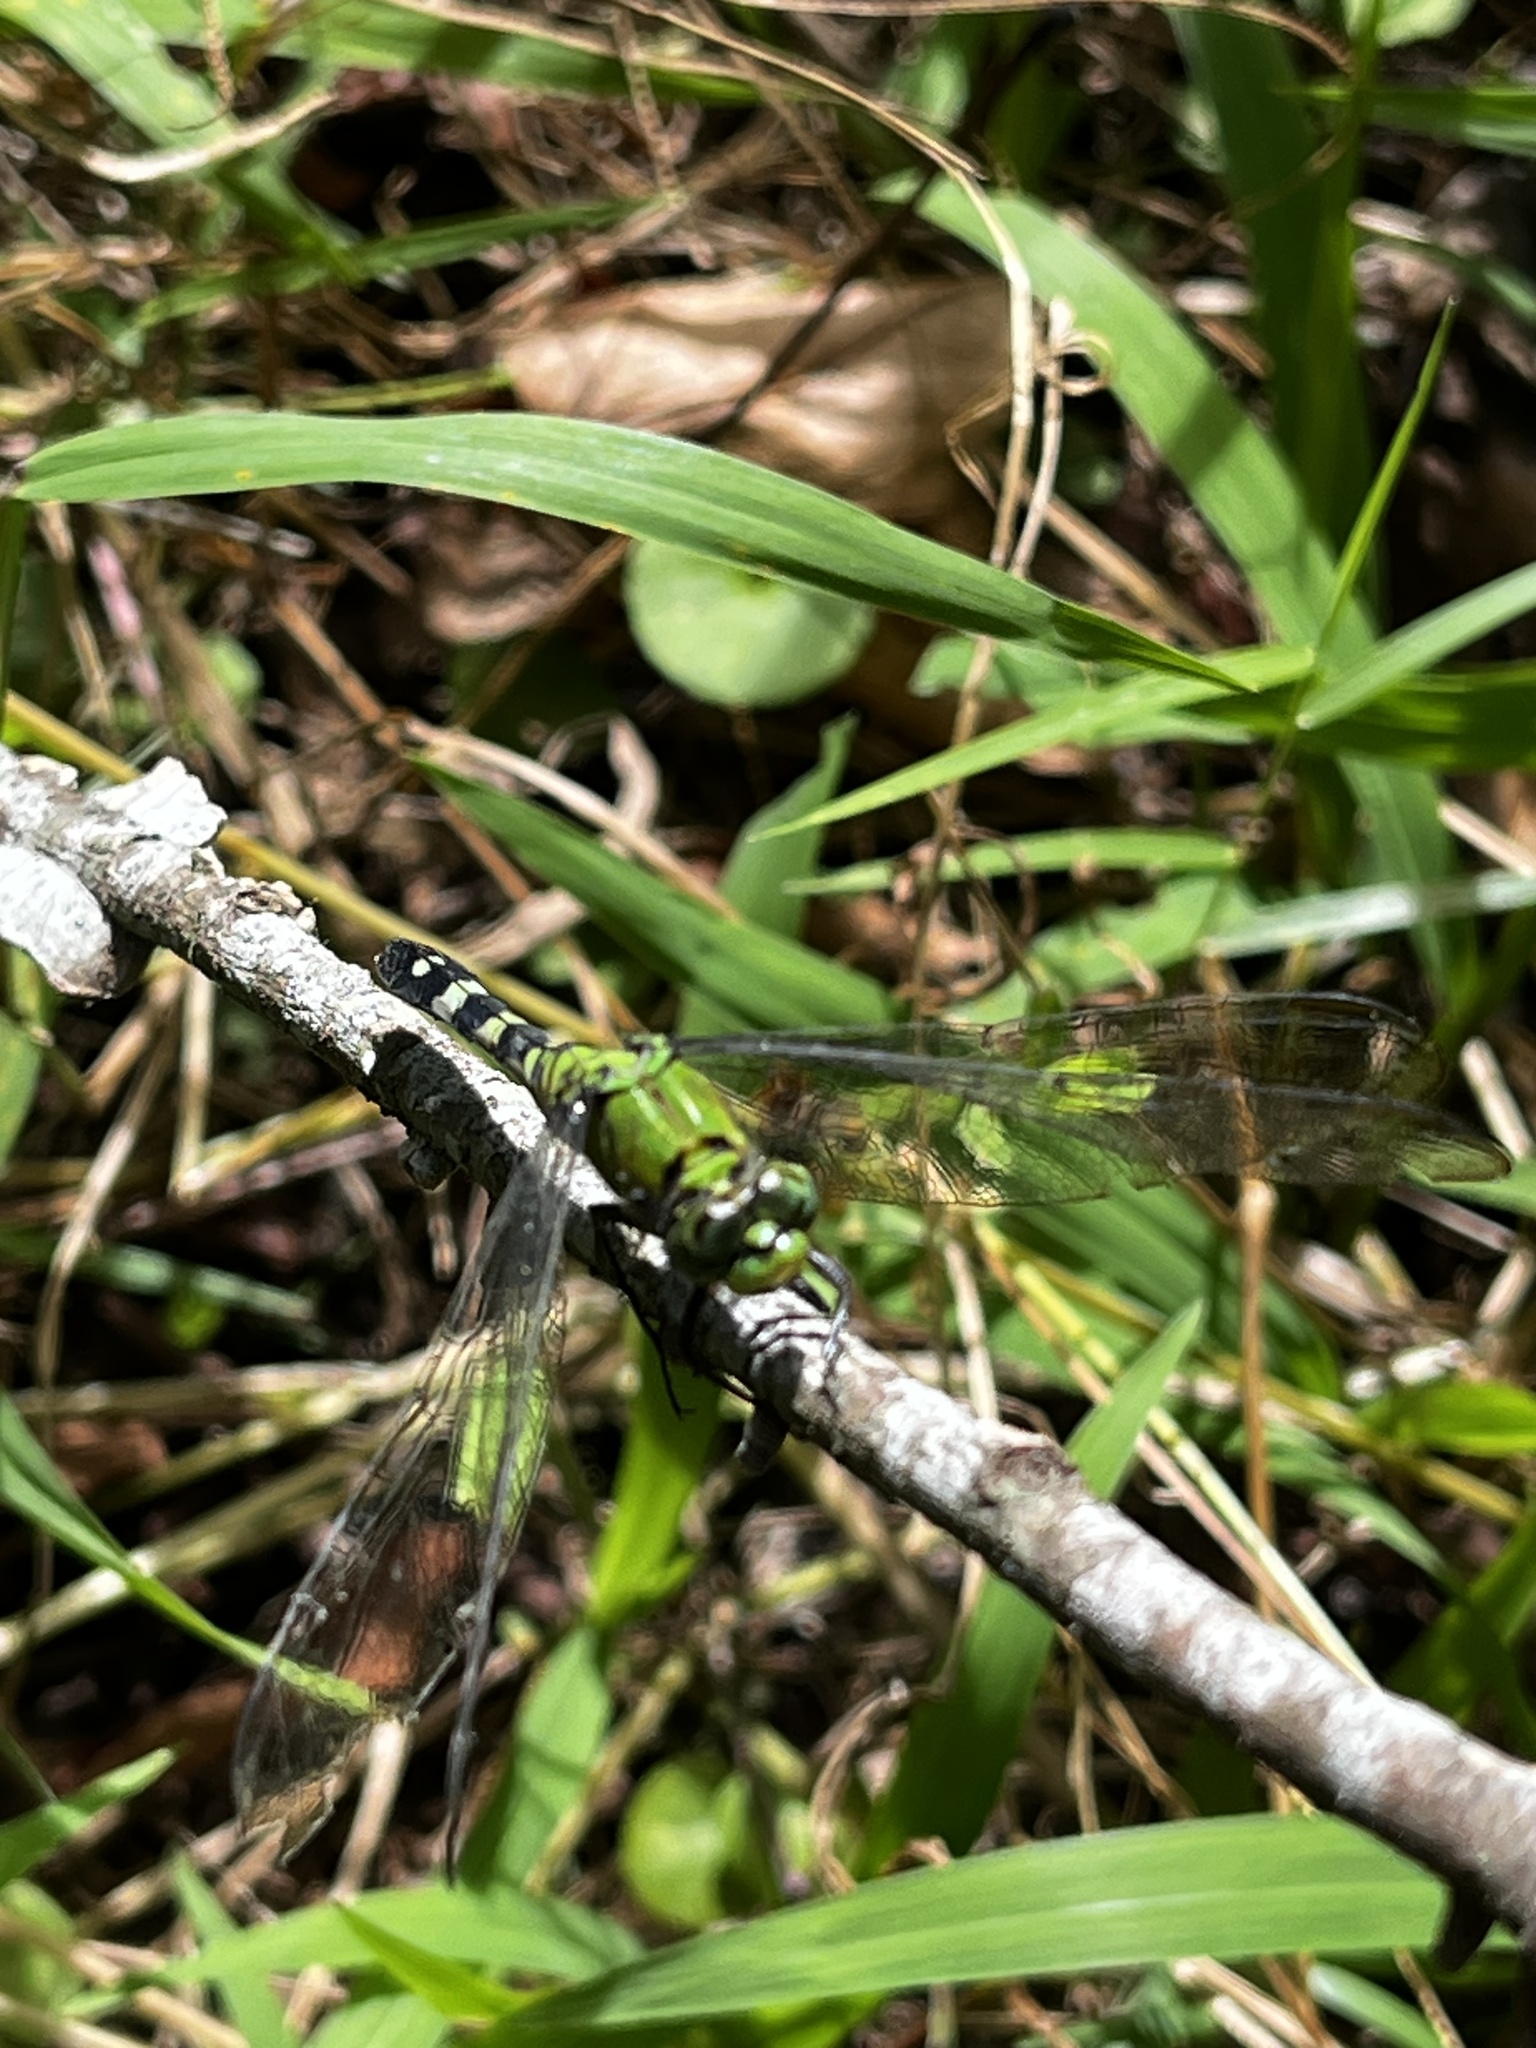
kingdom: Animalia
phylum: Arthropoda
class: Insecta
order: Odonata
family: Libellulidae
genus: Erythemis
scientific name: Erythemis simplicicollis
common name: Eastern pondhawk
